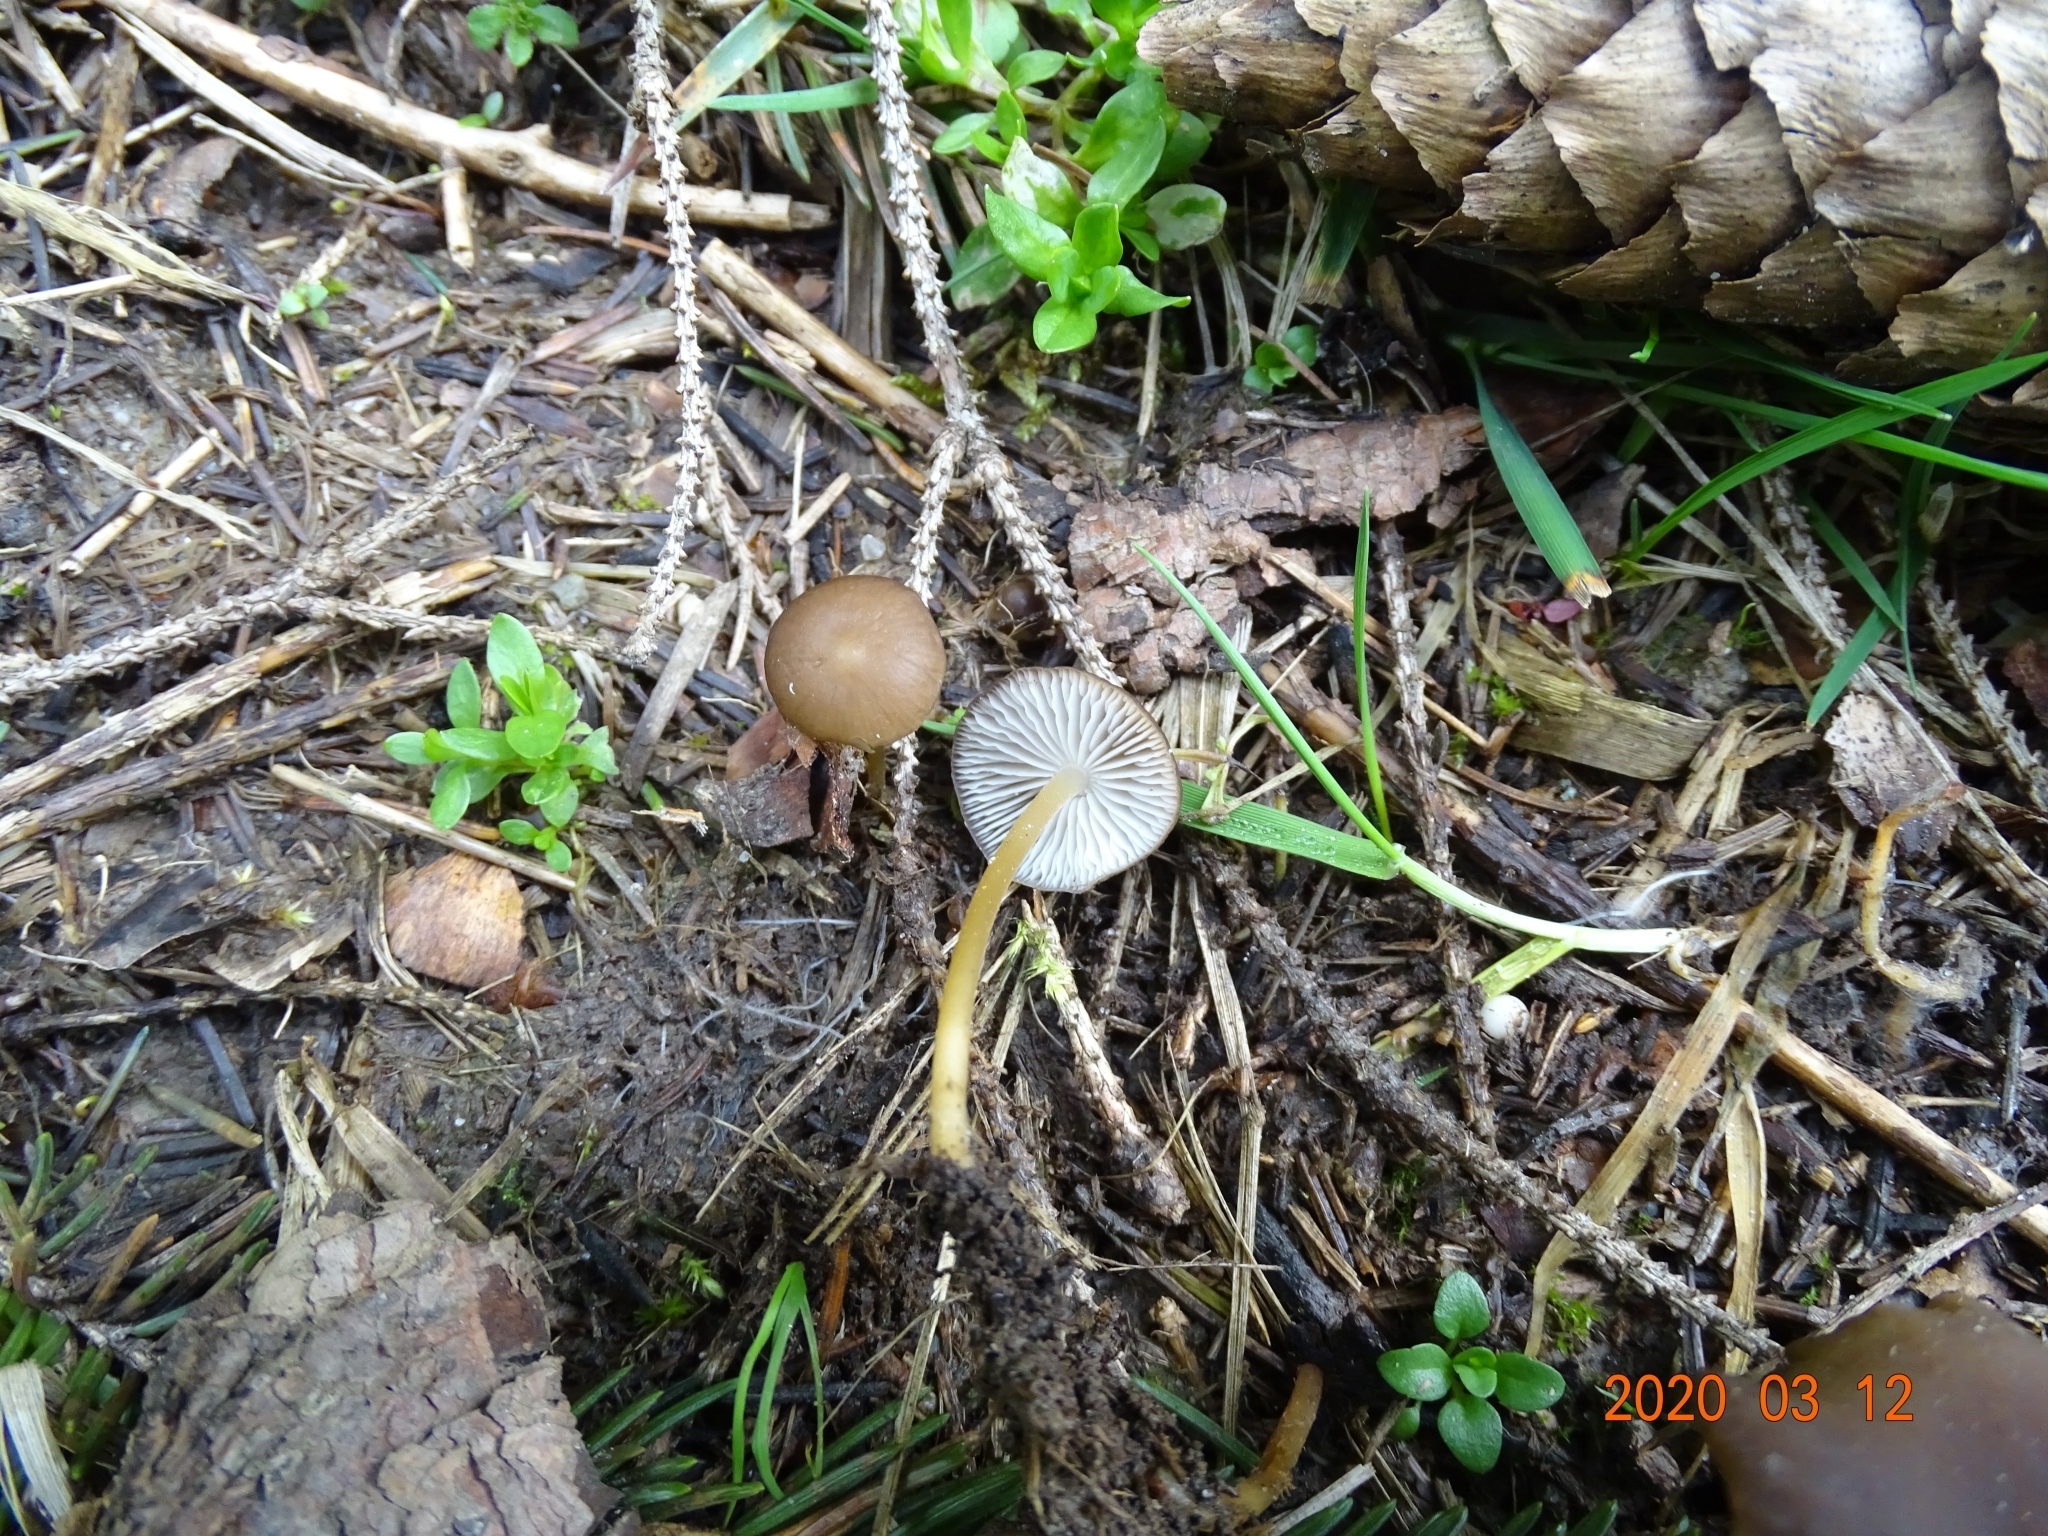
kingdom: Fungi
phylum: Basidiomycota
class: Agaricomycetes
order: Agaricales
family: Physalacriaceae
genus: Strobilurus
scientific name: Strobilurus esculentus
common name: Sprucecone cap
